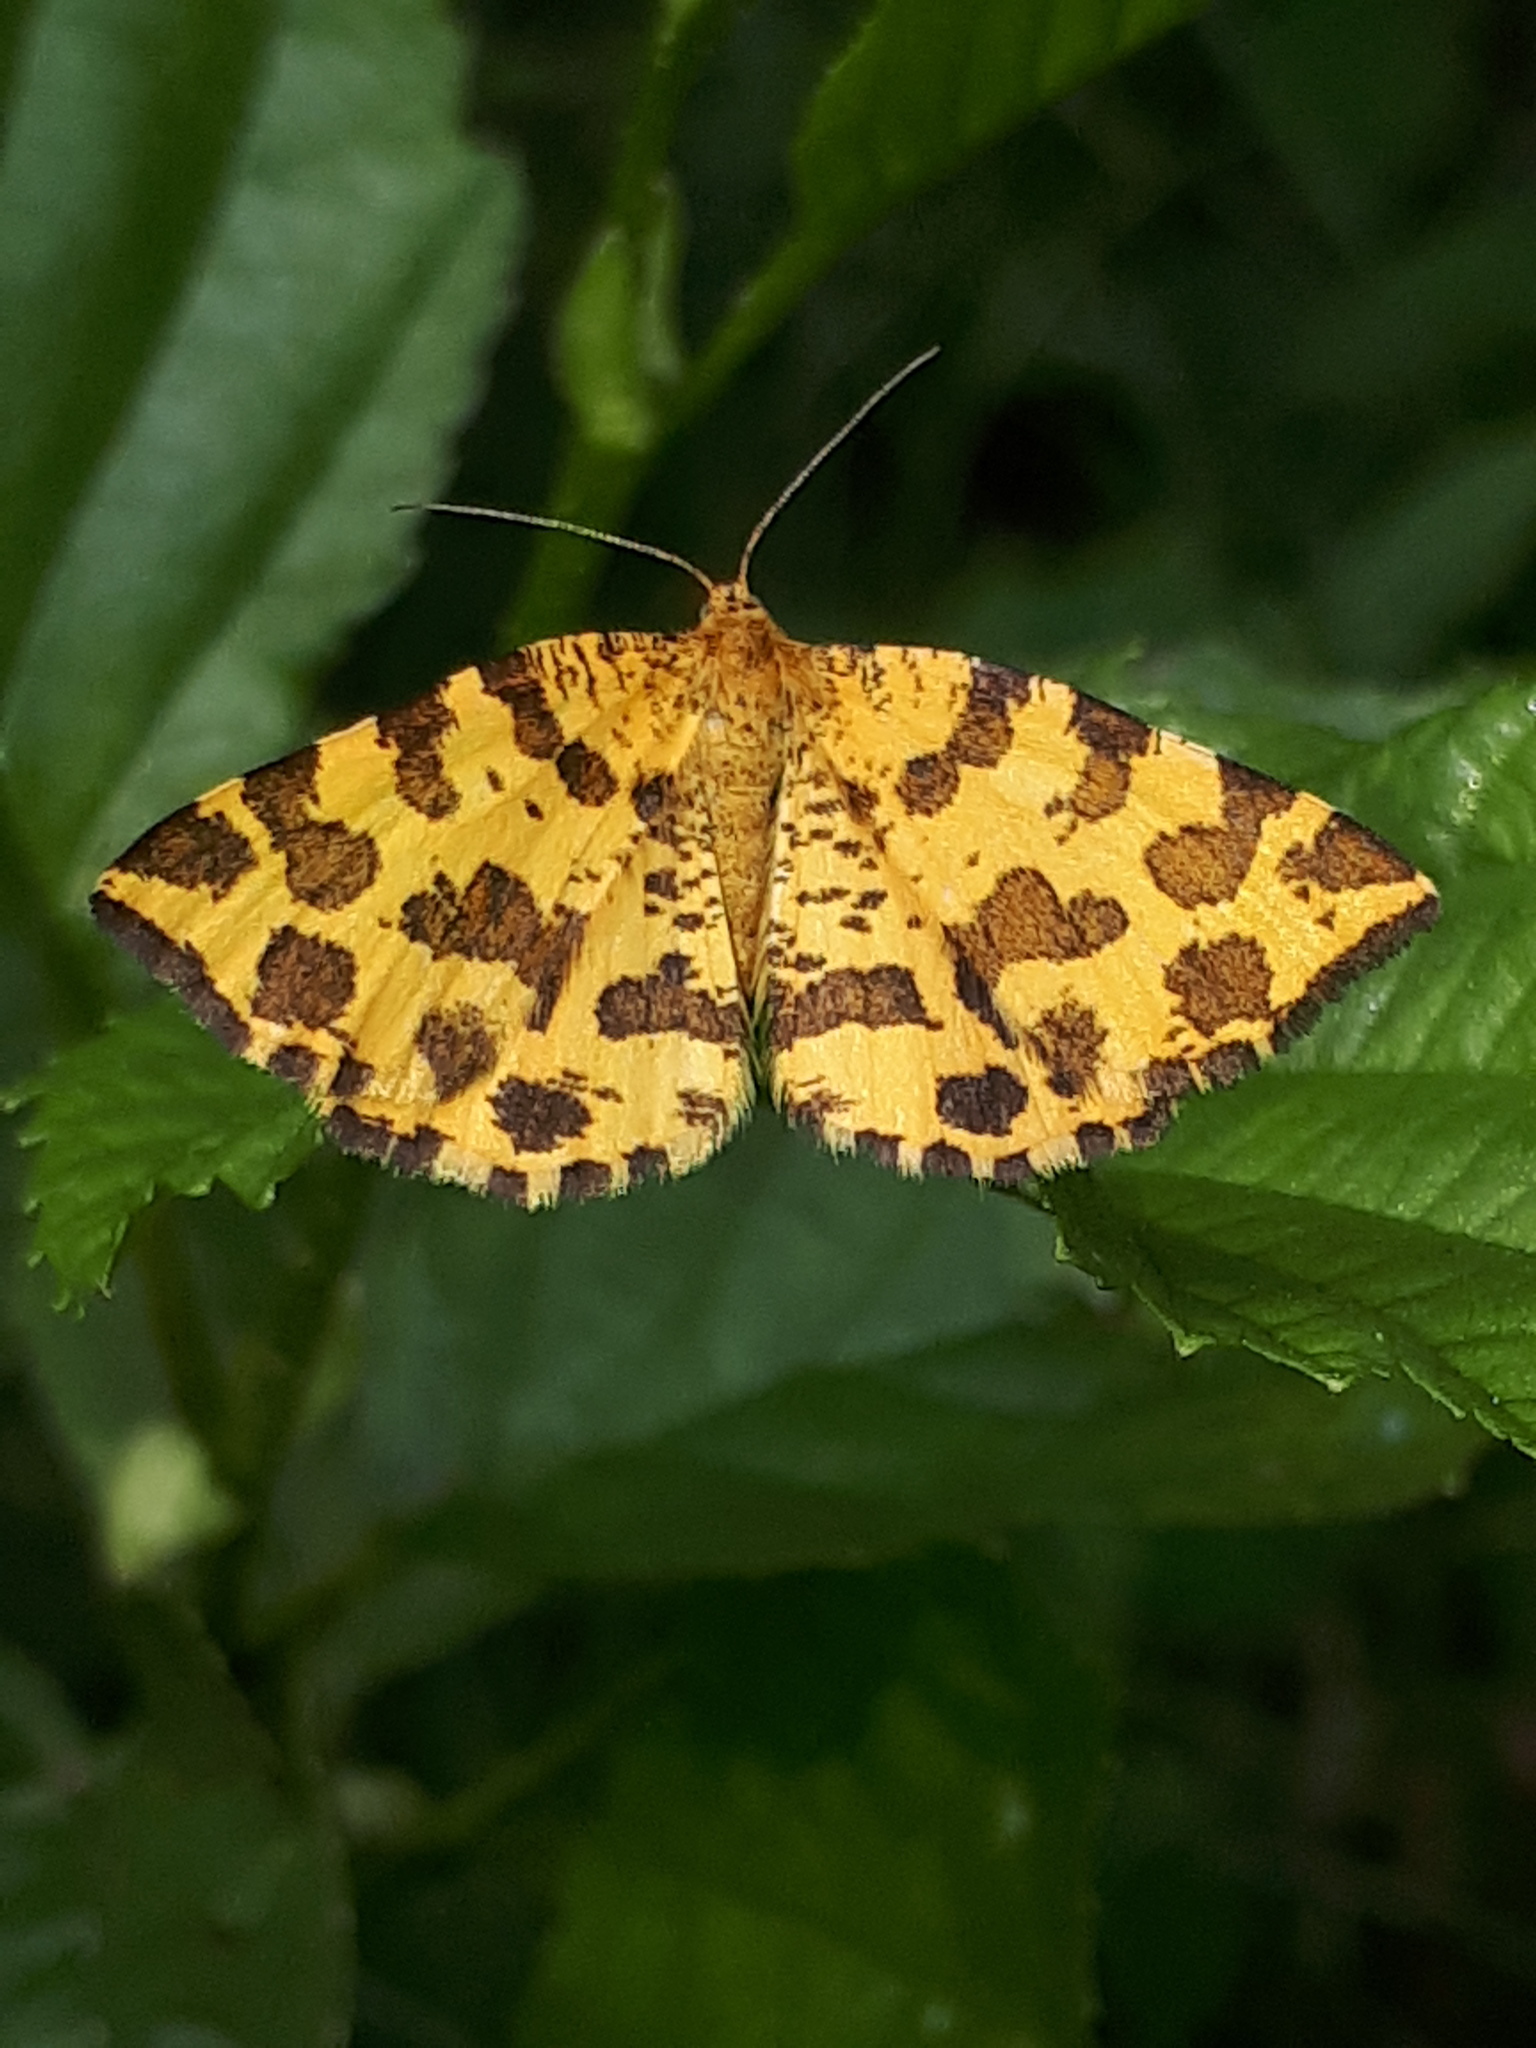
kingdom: Animalia
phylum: Arthropoda
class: Insecta
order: Lepidoptera
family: Geometridae
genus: Pseudopanthera
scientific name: Pseudopanthera macularia
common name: Speckled yellow
